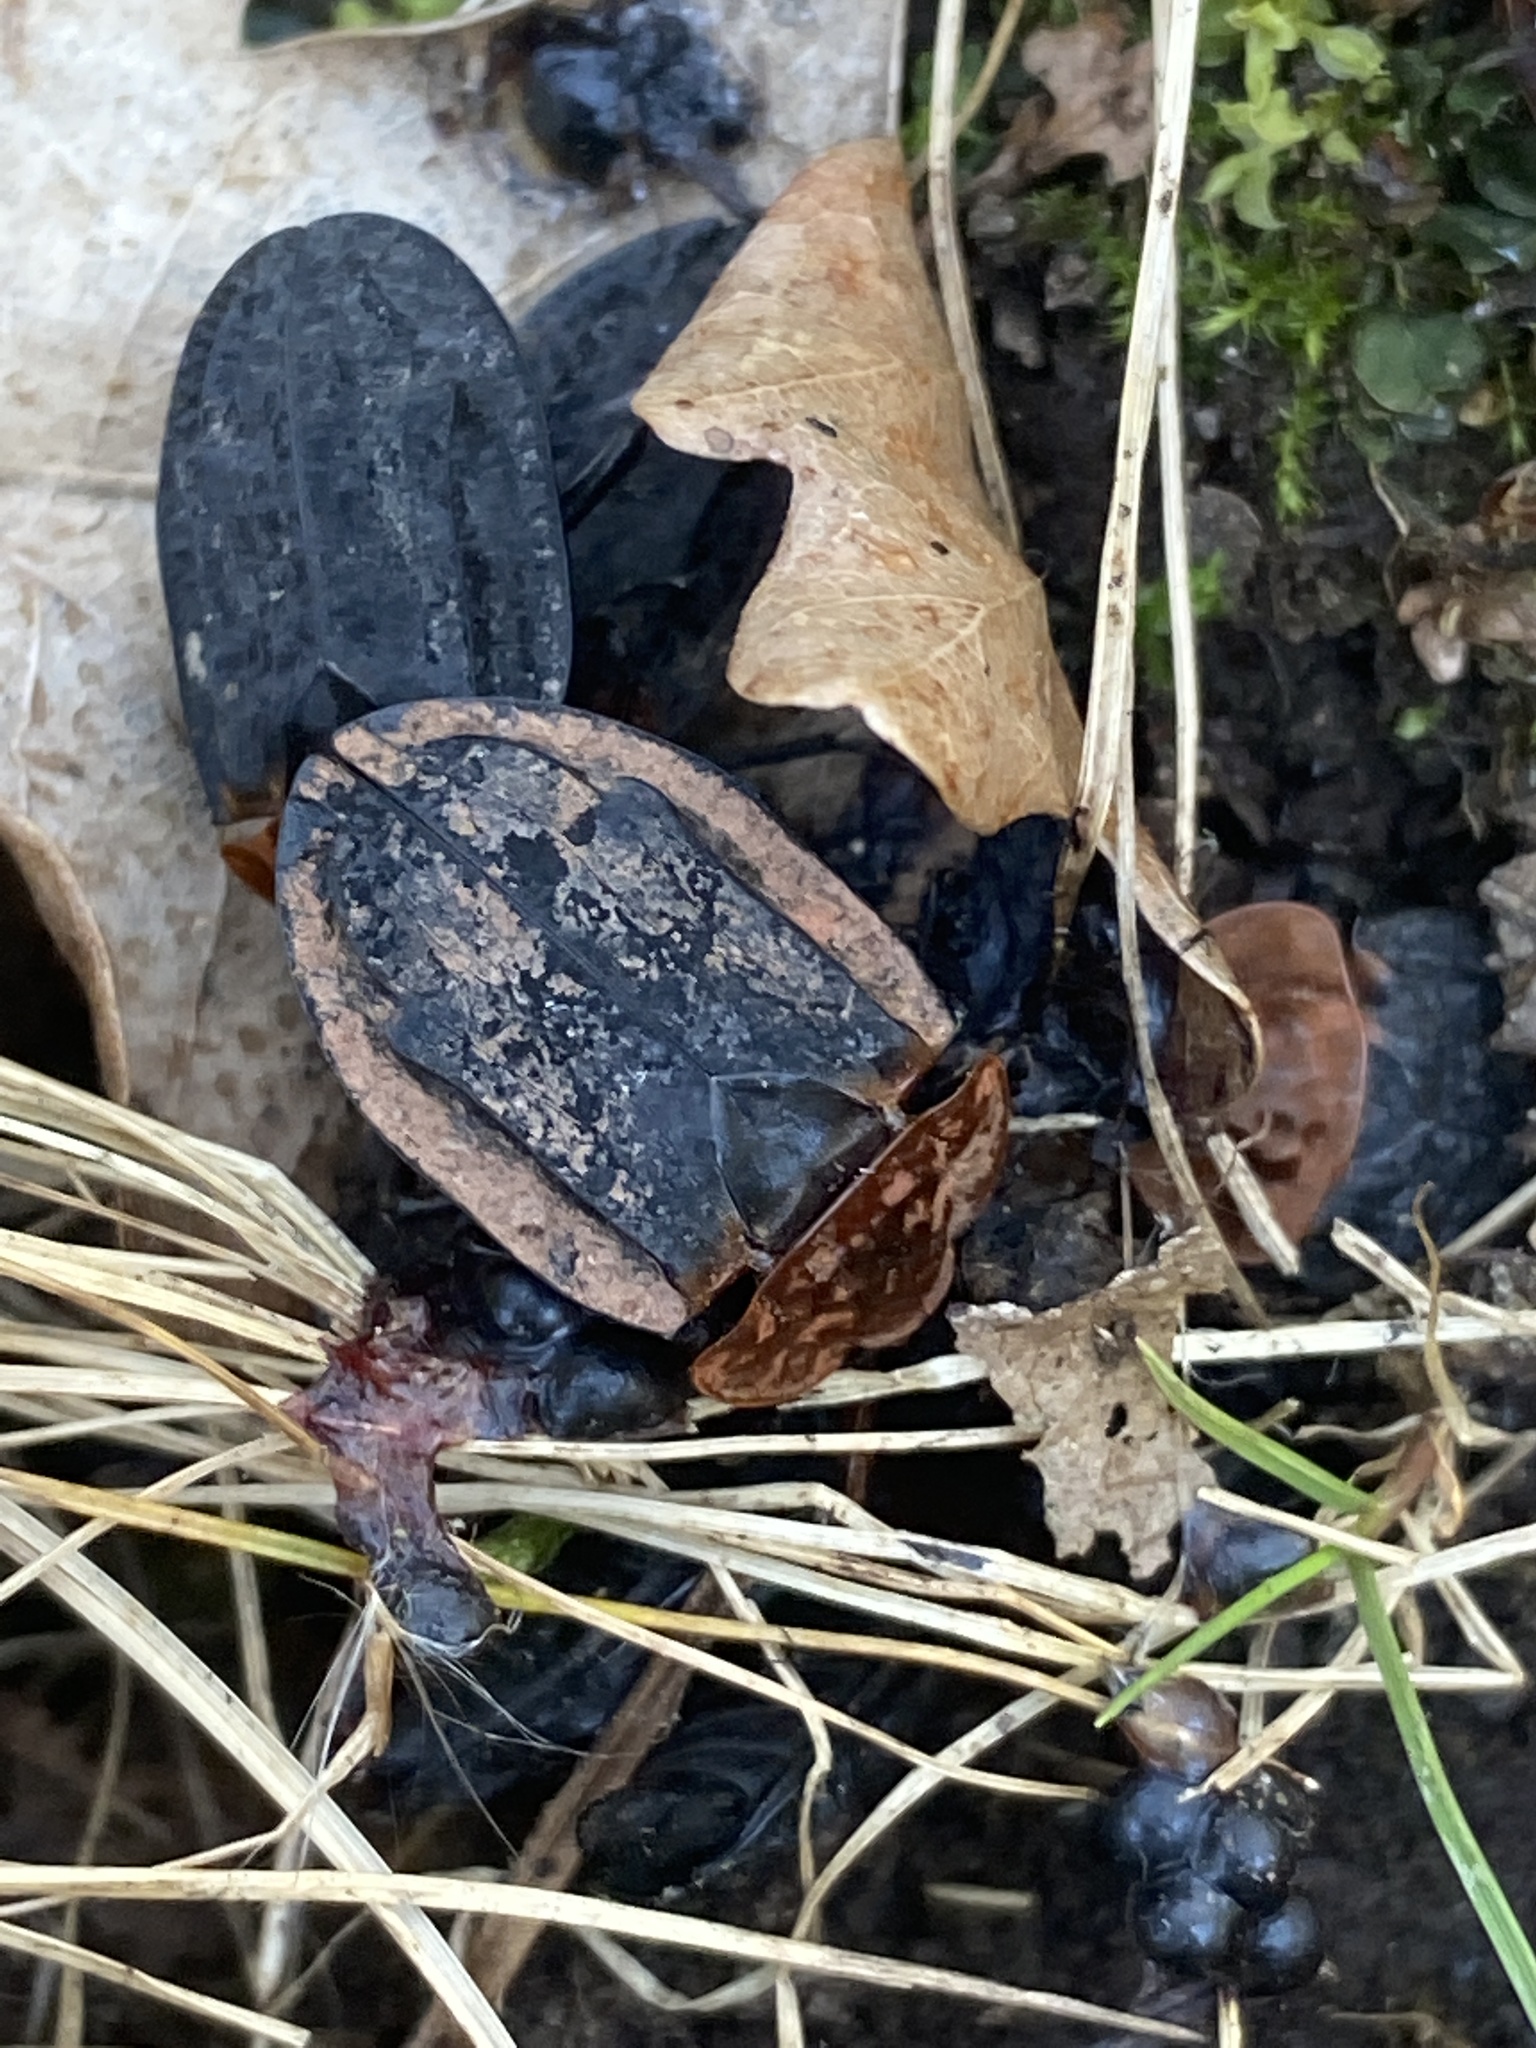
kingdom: Animalia
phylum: Arthropoda
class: Insecta
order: Coleoptera
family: Staphylinidae
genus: Oiceoptoma
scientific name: Oiceoptoma thoracicum
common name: Red-breasted carrion beetle
